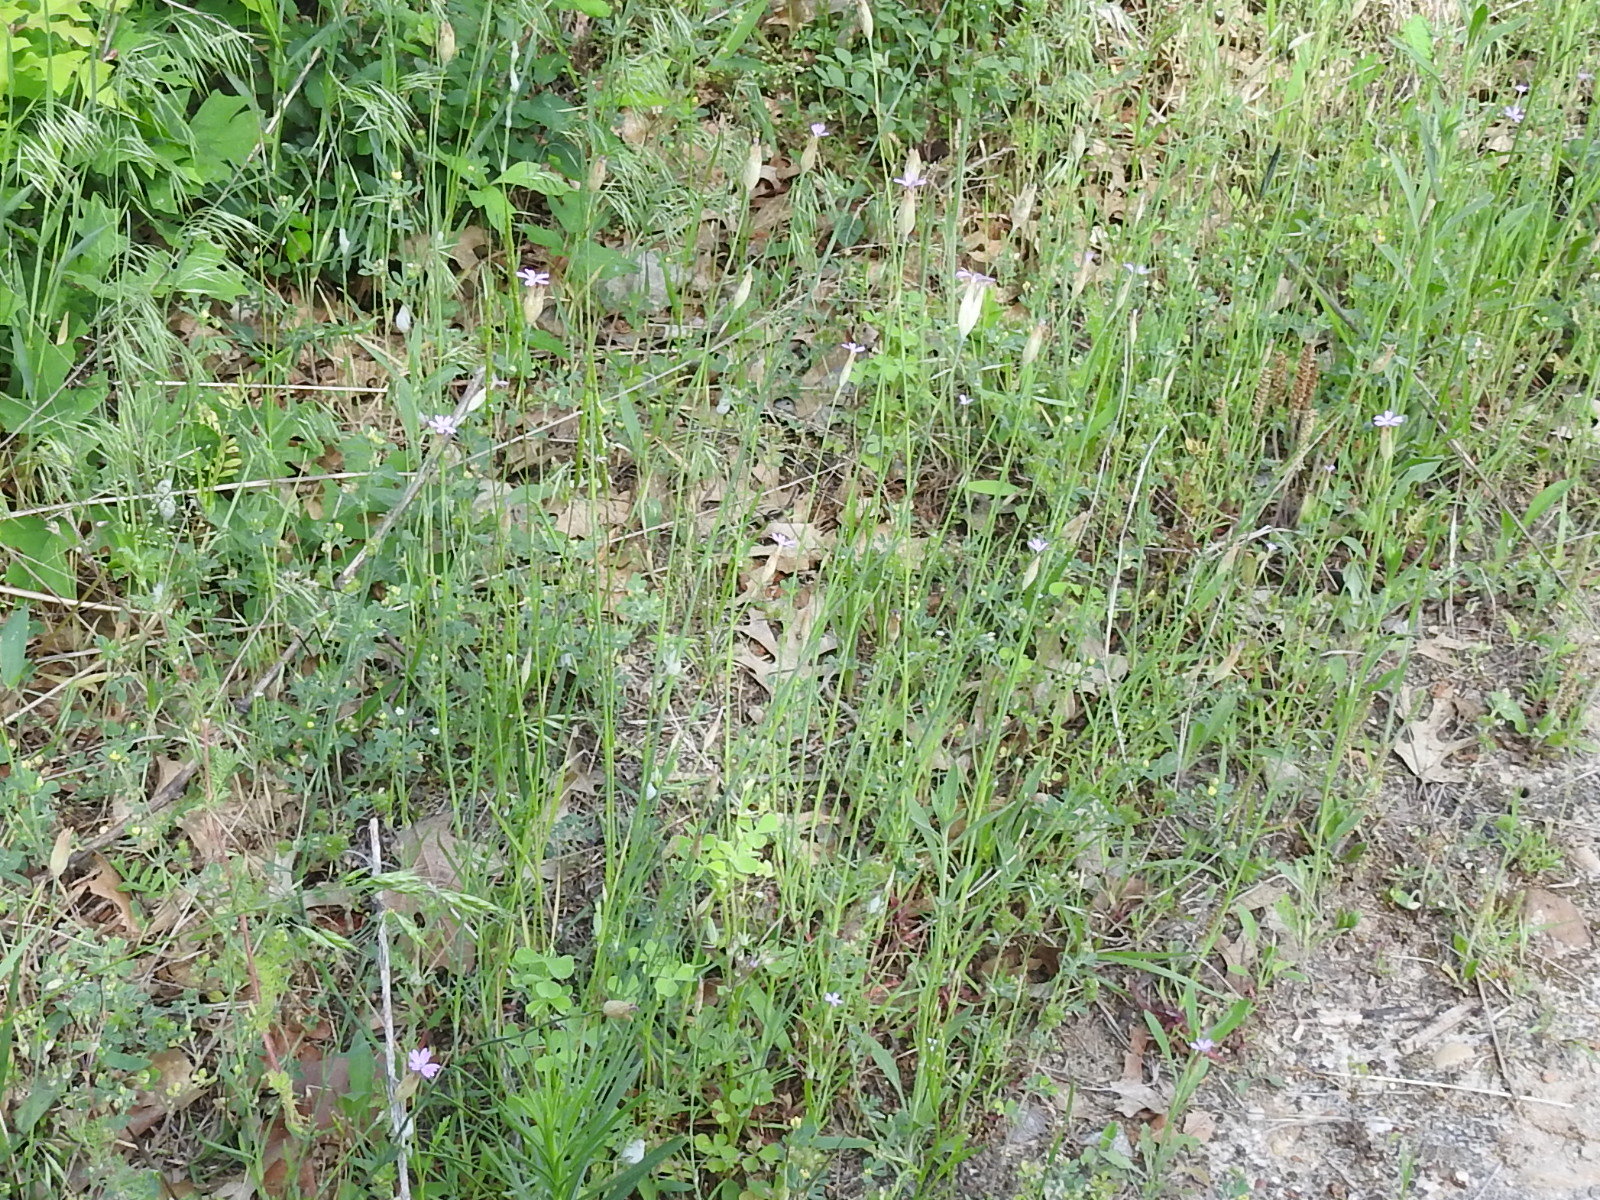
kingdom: Plantae
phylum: Tracheophyta
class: Magnoliopsida
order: Caryophyllales
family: Caryophyllaceae
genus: Petrorhagia
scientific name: Petrorhagia dubia
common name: Hairypink
